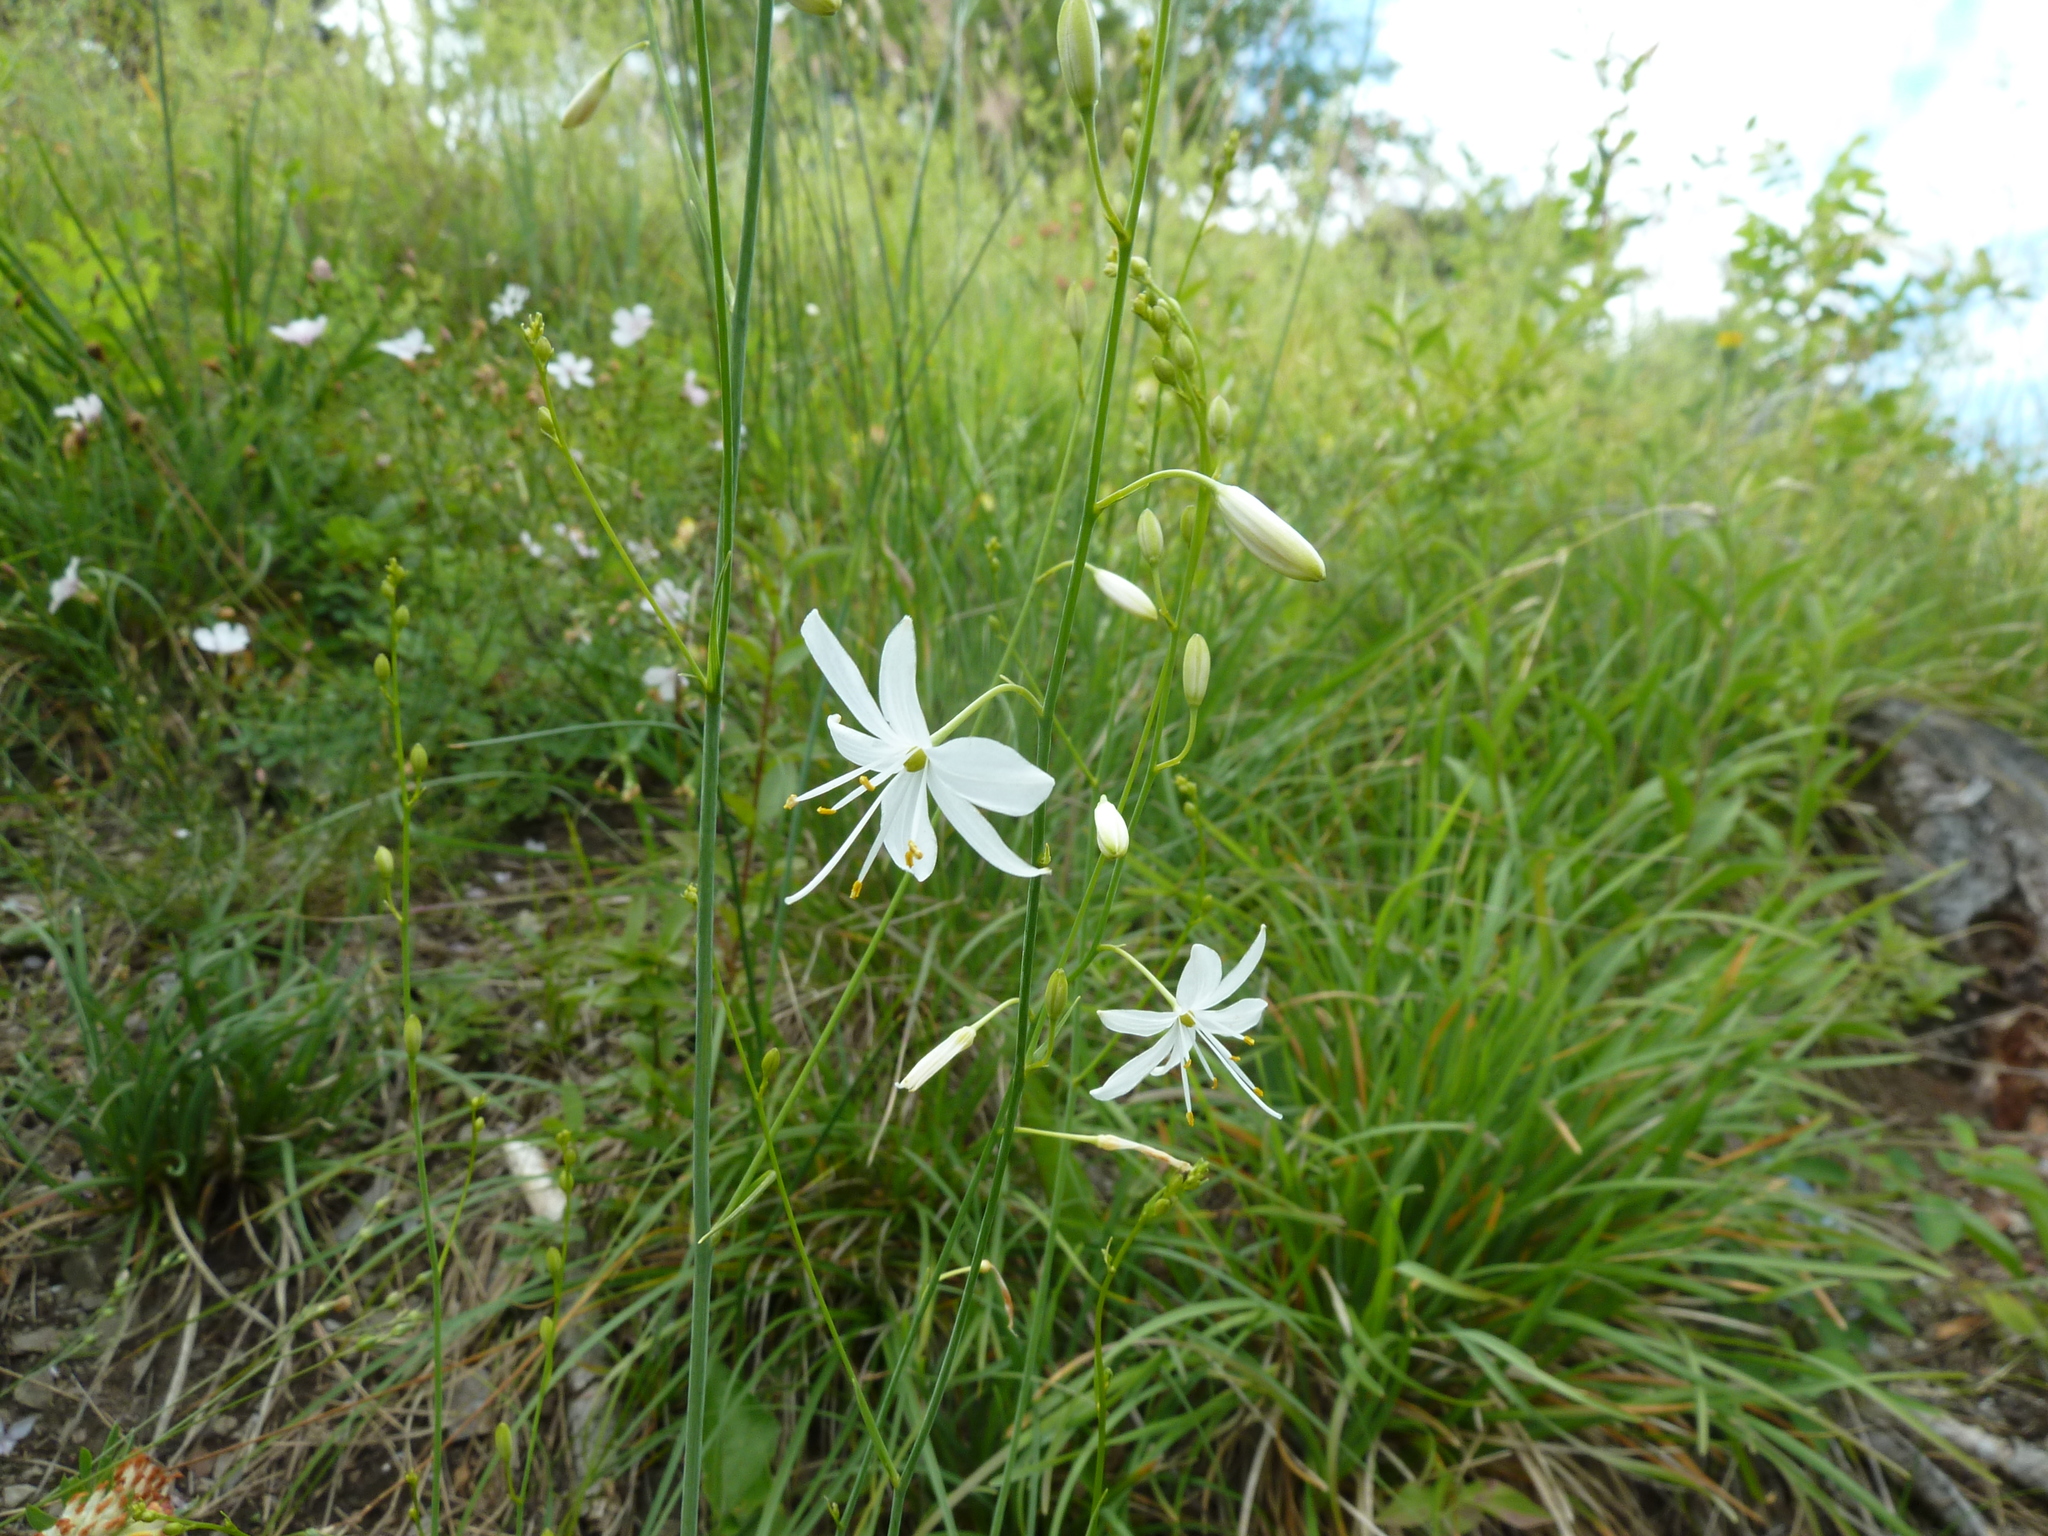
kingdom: Plantae
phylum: Tracheophyta
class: Liliopsida
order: Asparagales
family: Asparagaceae
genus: Anthericum
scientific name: Anthericum ramosum
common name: Branched st. bernard's-lily
